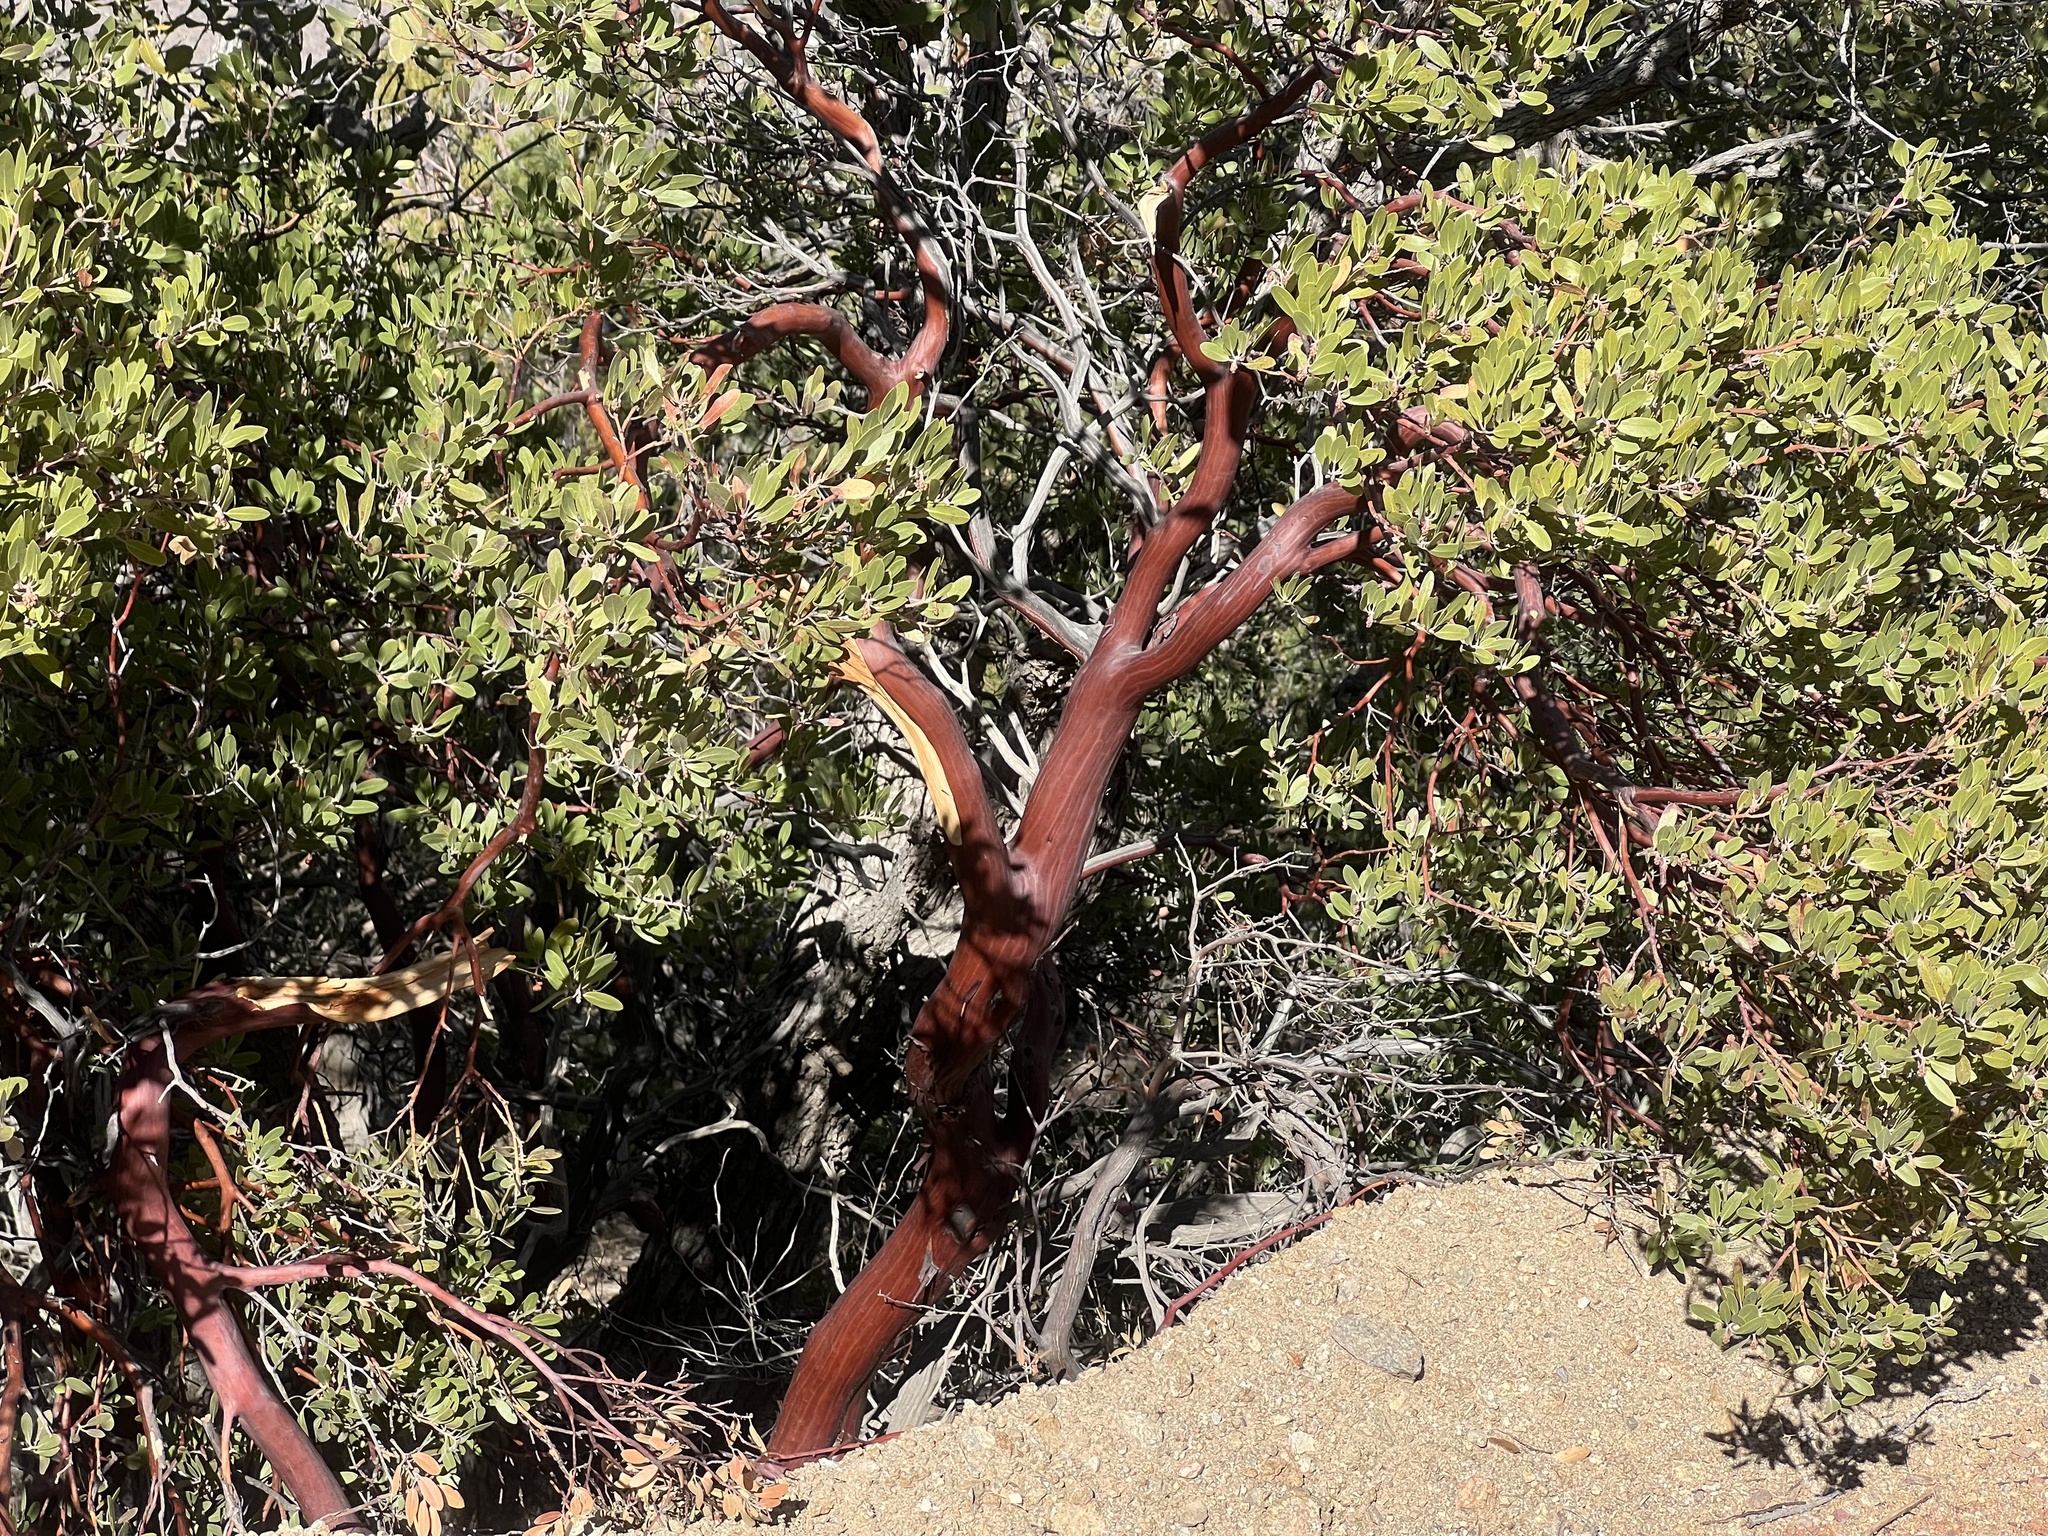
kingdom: Plantae
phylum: Tracheophyta
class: Magnoliopsida
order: Ericales
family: Ericaceae
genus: Arctostaphylos
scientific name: Arctostaphylos pungens
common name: Mexican manzanita
